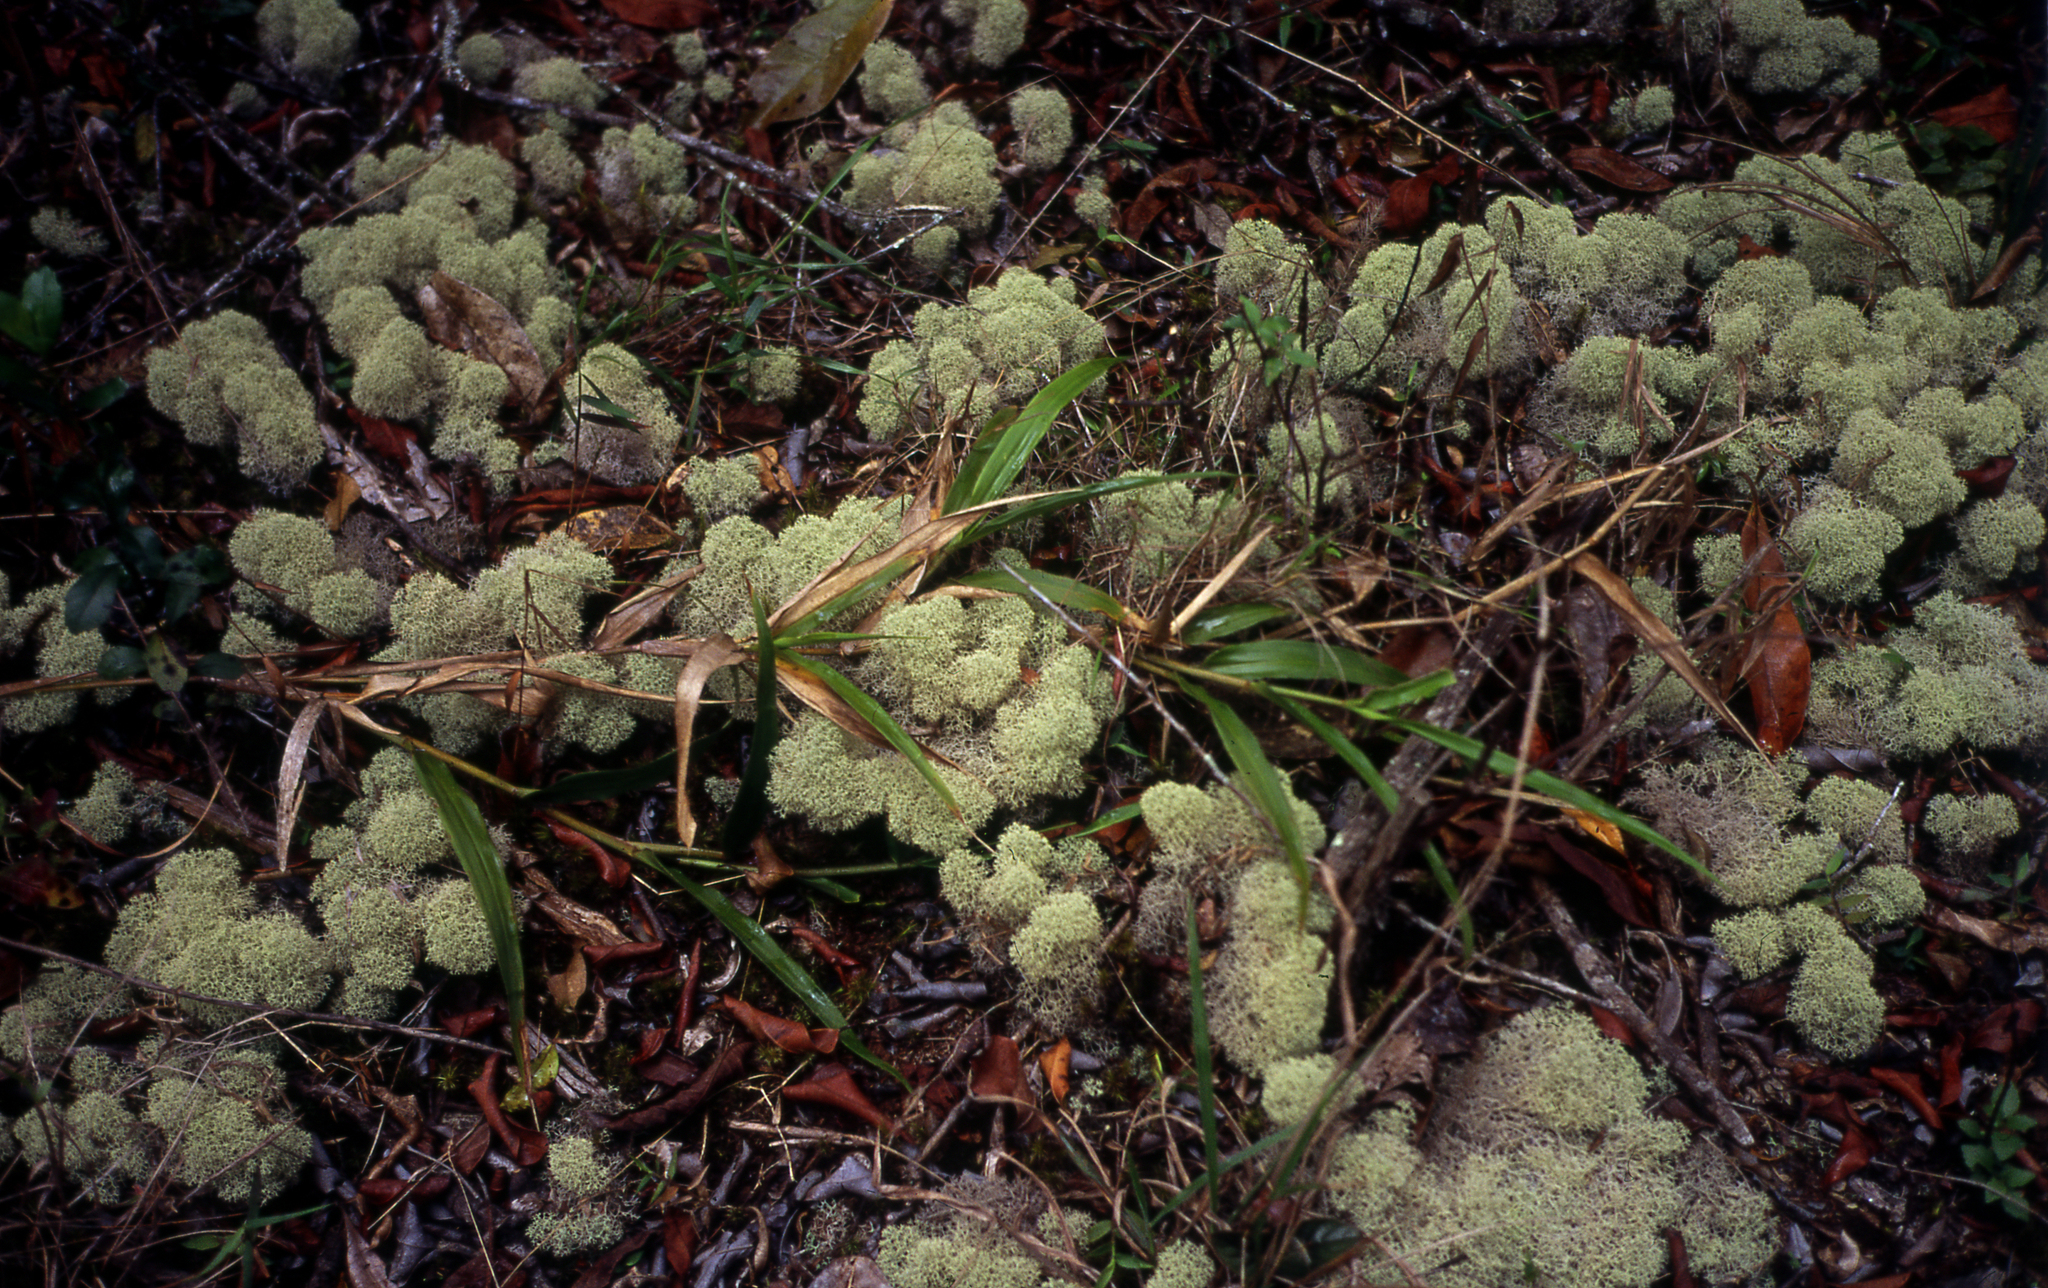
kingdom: Fungi
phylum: Ascomycota
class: Lecanoromycetes
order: Lecanorales
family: Cladoniaceae
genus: Cladonia
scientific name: Cladonia confusa
